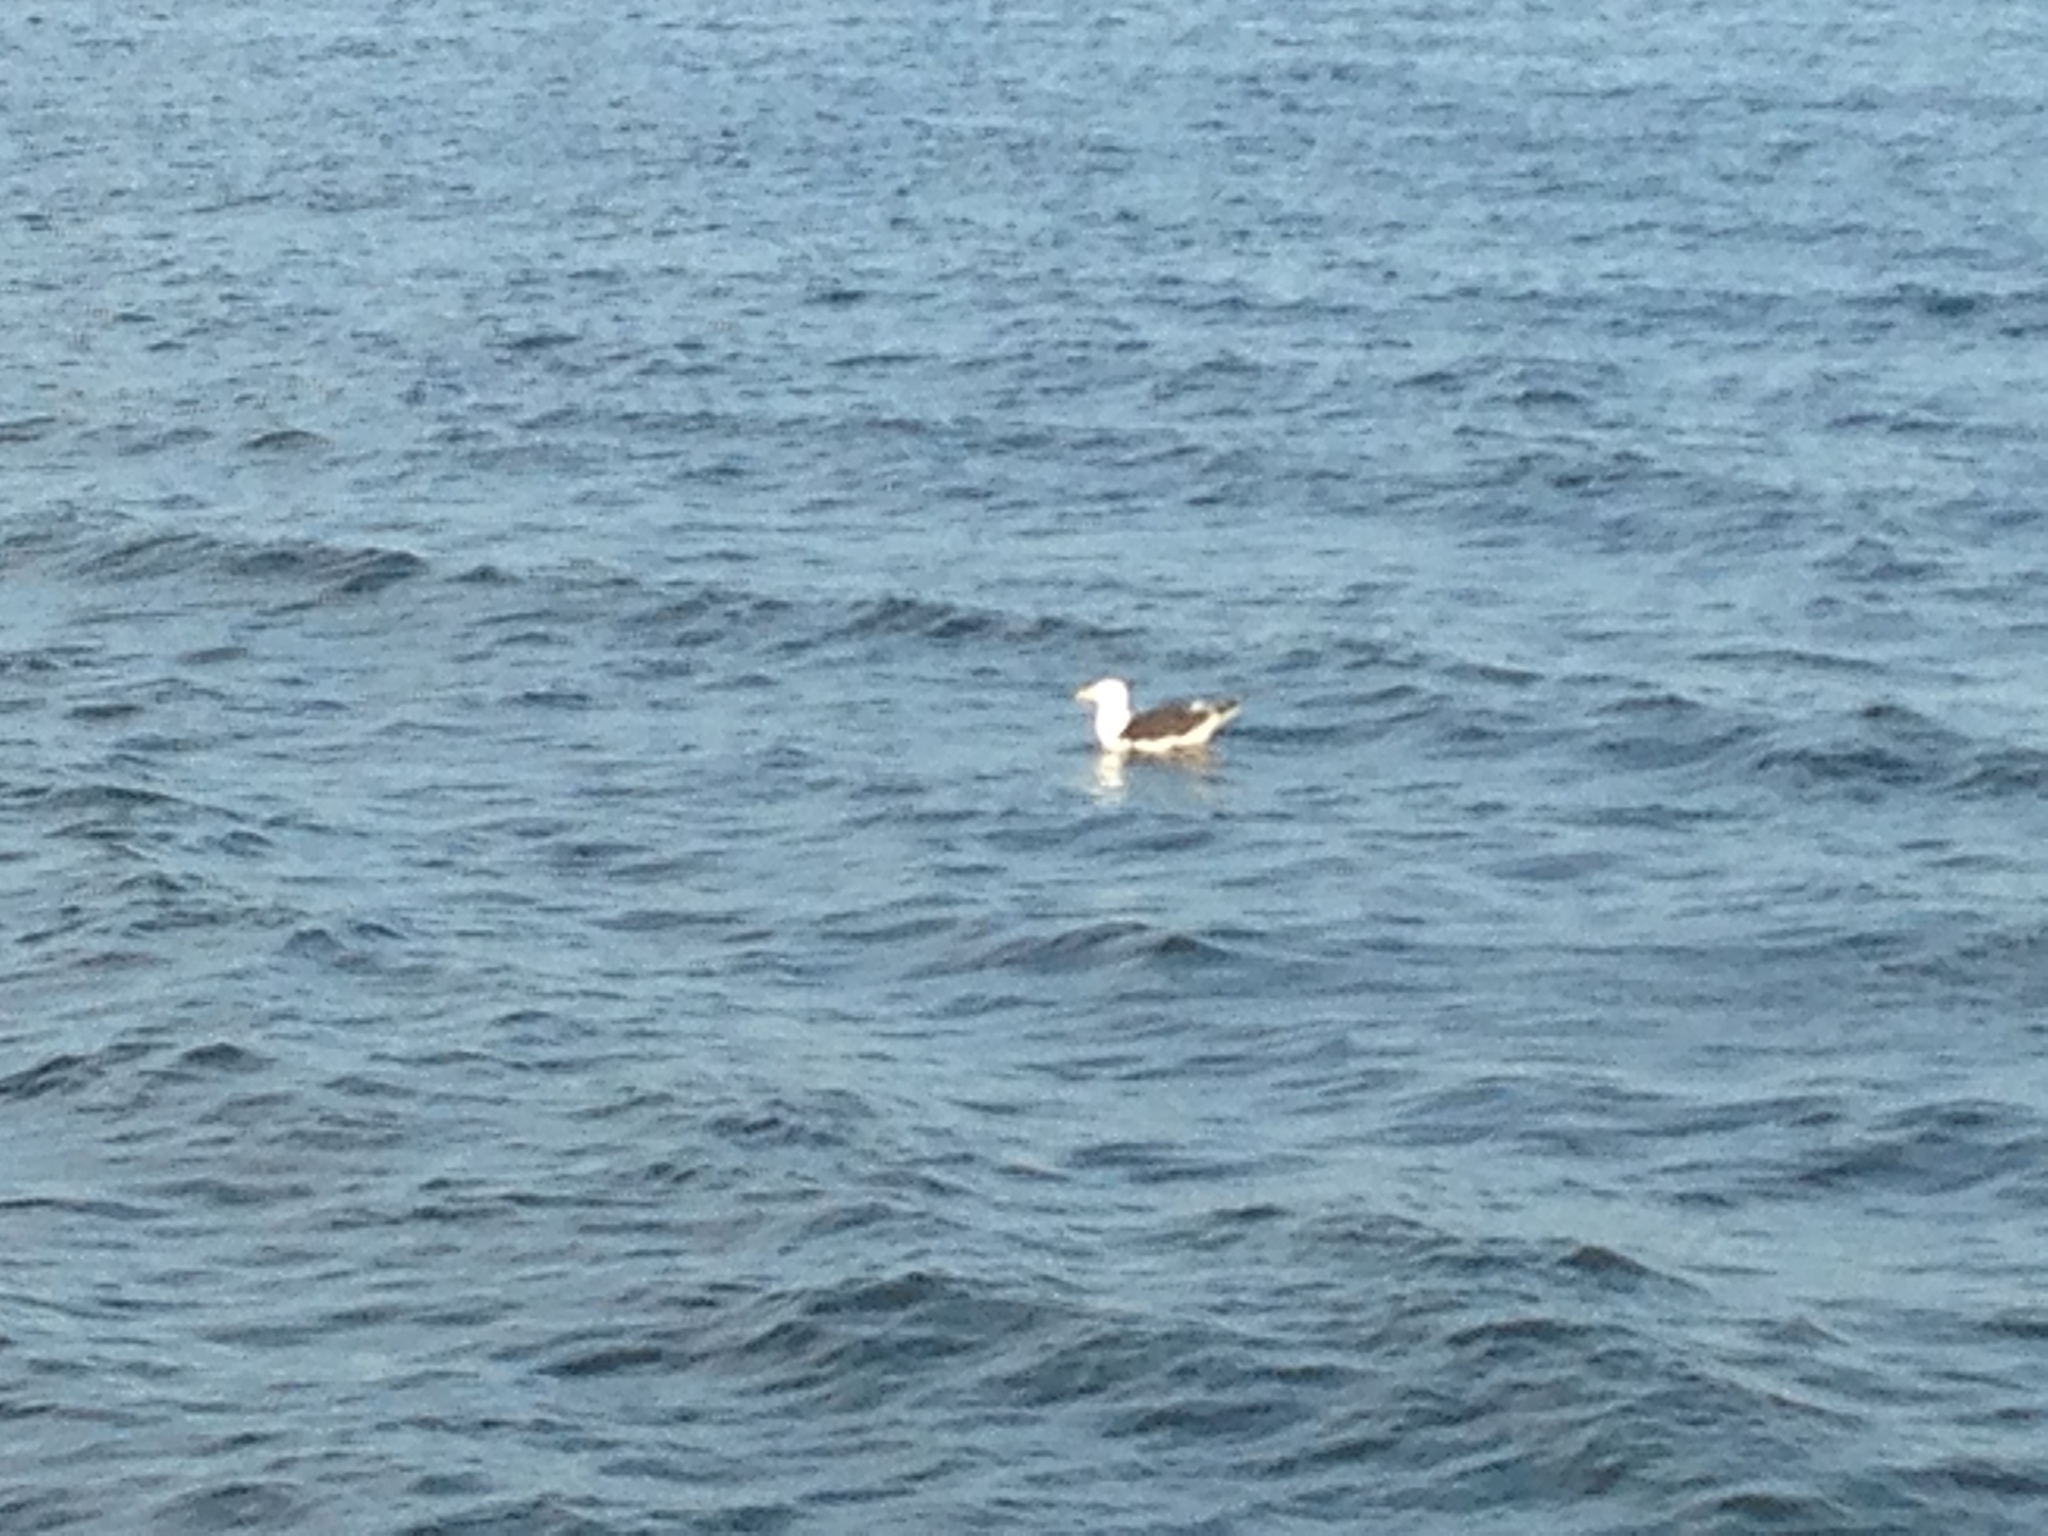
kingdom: Animalia
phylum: Chordata
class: Aves
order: Charadriiformes
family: Laridae
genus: Larus
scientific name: Larus marinus
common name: Great black-backed gull
